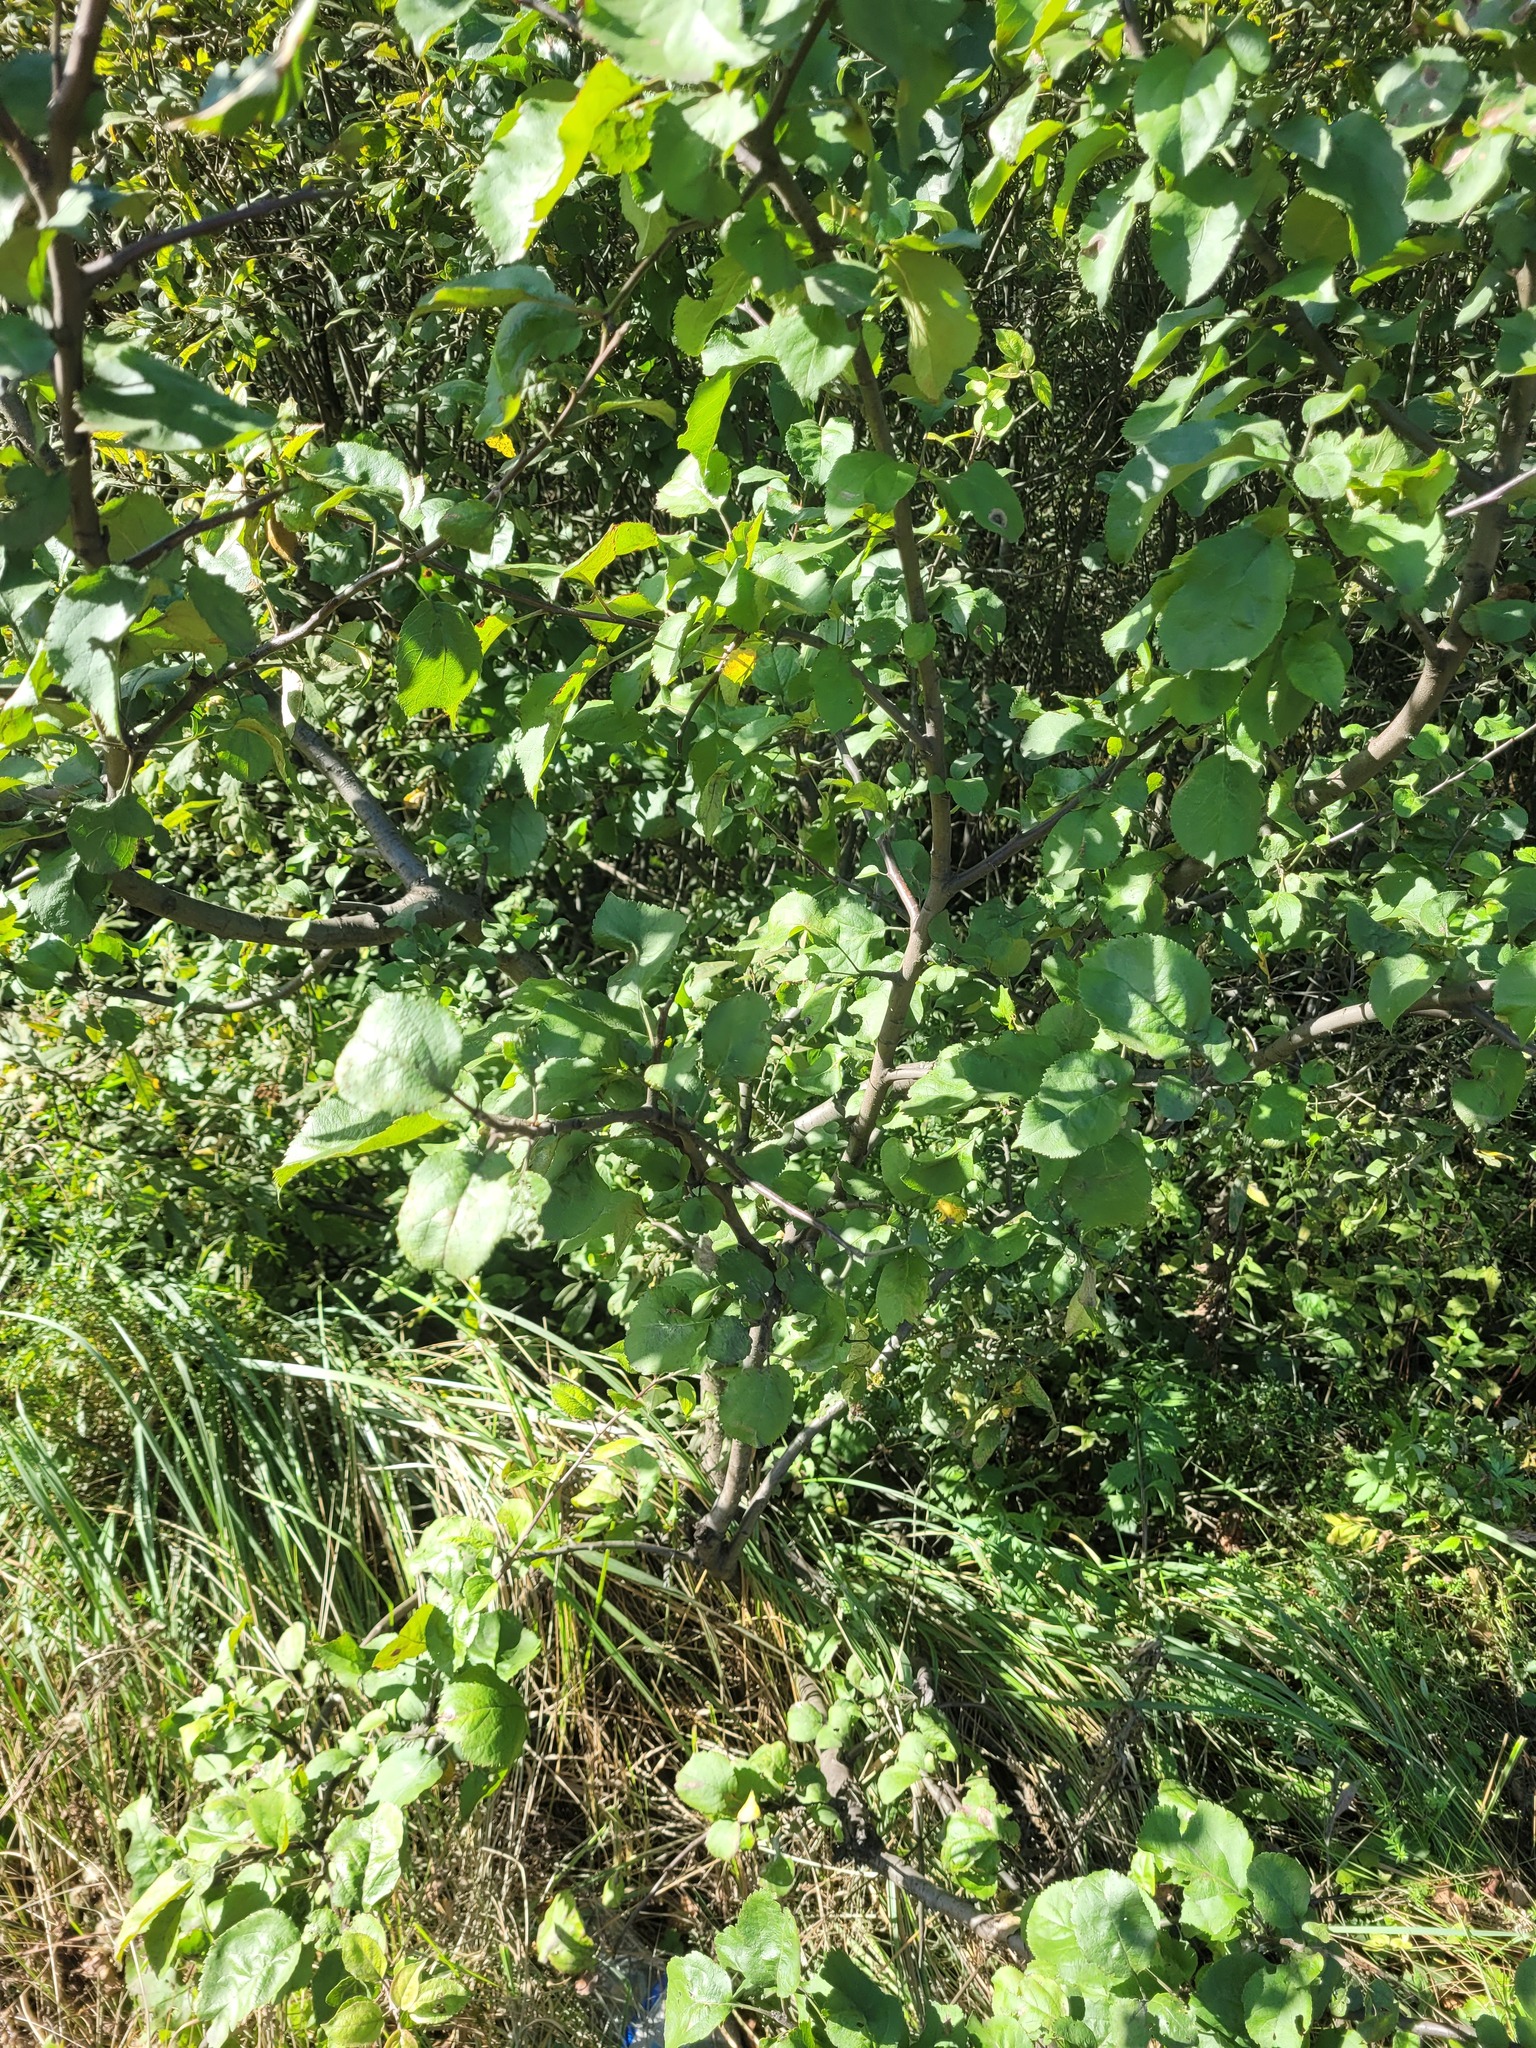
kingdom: Plantae
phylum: Tracheophyta
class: Magnoliopsida
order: Rosales
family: Rosaceae
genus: Malus
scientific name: Malus domestica
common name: Apple
